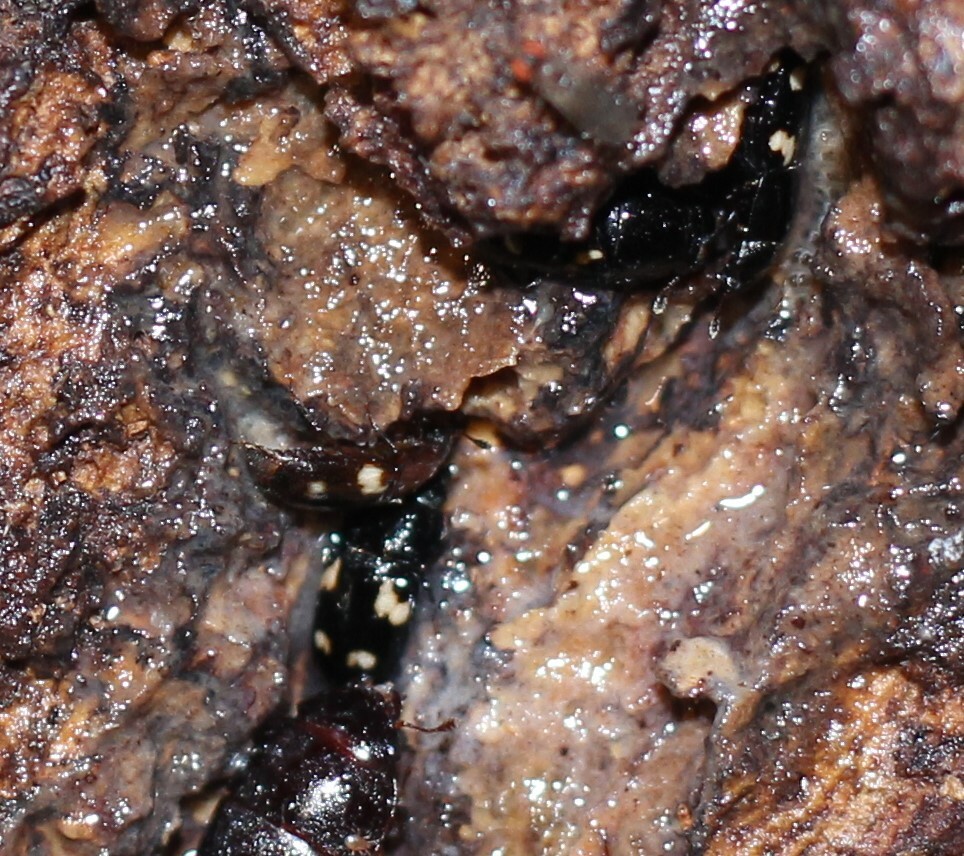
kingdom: Animalia
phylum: Arthropoda
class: Insecta
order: Coleoptera
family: Nitidulidae
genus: Glischrochilus
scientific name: Glischrochilus quadrisignatus
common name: Picnic beetle
